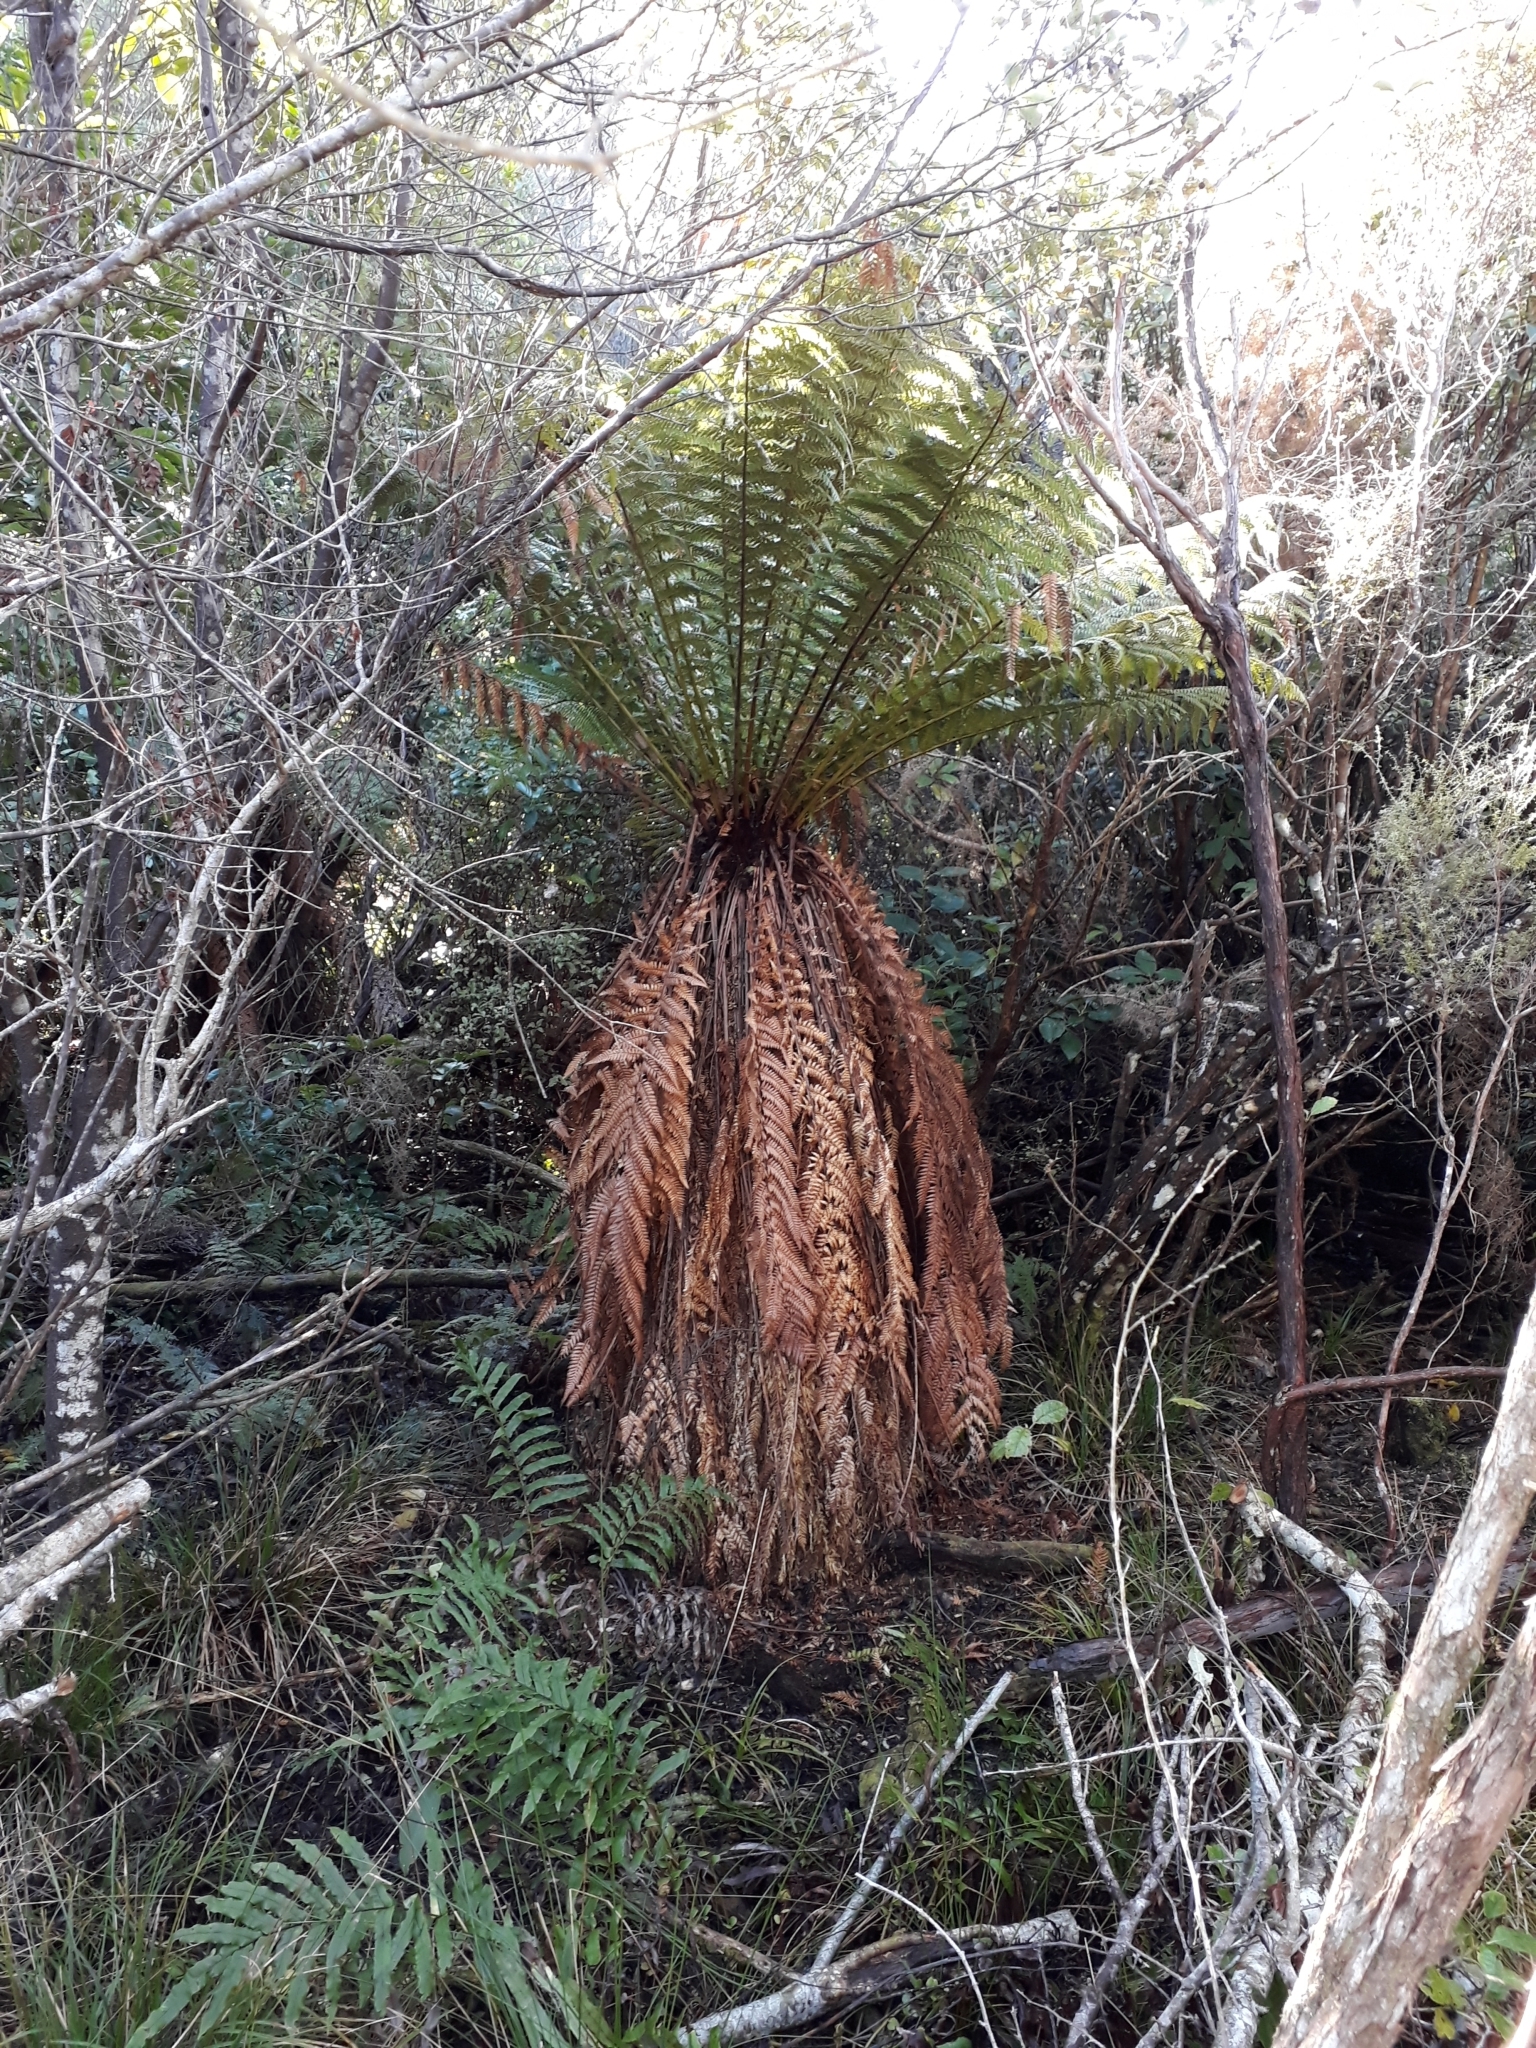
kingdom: Plantae
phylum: Tracheophyta
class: Polypodiopsida
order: Cyatheales
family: Dicksoniaceae
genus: Dicksonia
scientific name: Dicksonia fibrosa
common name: Golden tree fern
